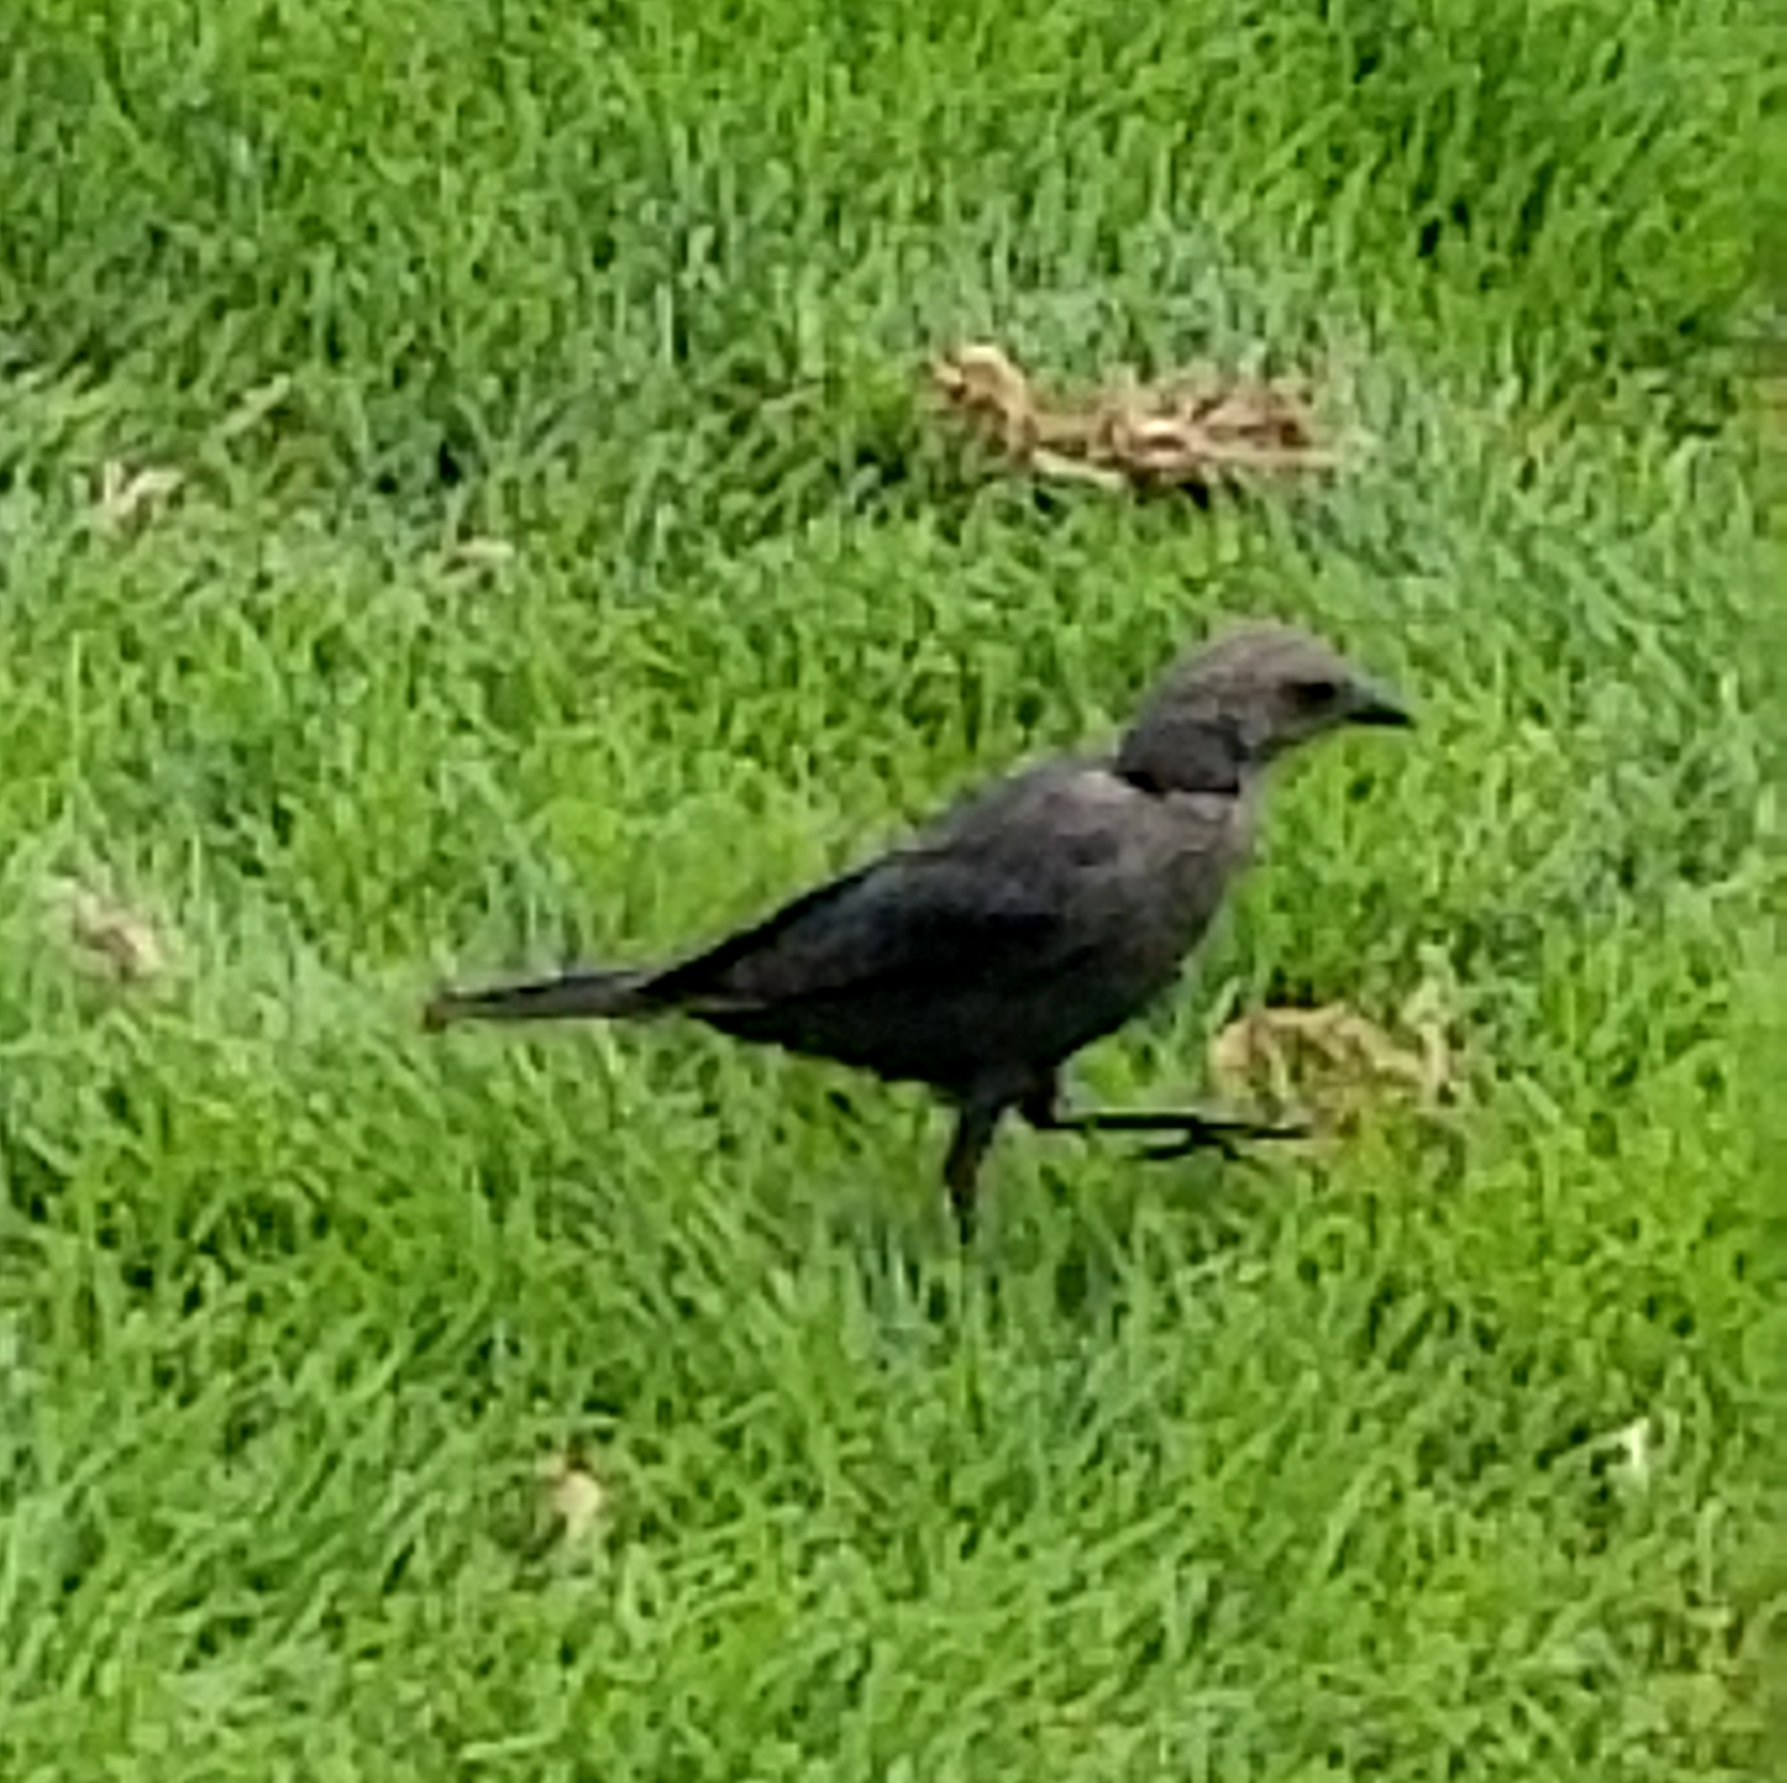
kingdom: Animalia
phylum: Chordata
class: Aves
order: Passeriformes
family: Icteridae
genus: Euphagus
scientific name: Euphagus cyanocephalus
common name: Brewer's blackbird
